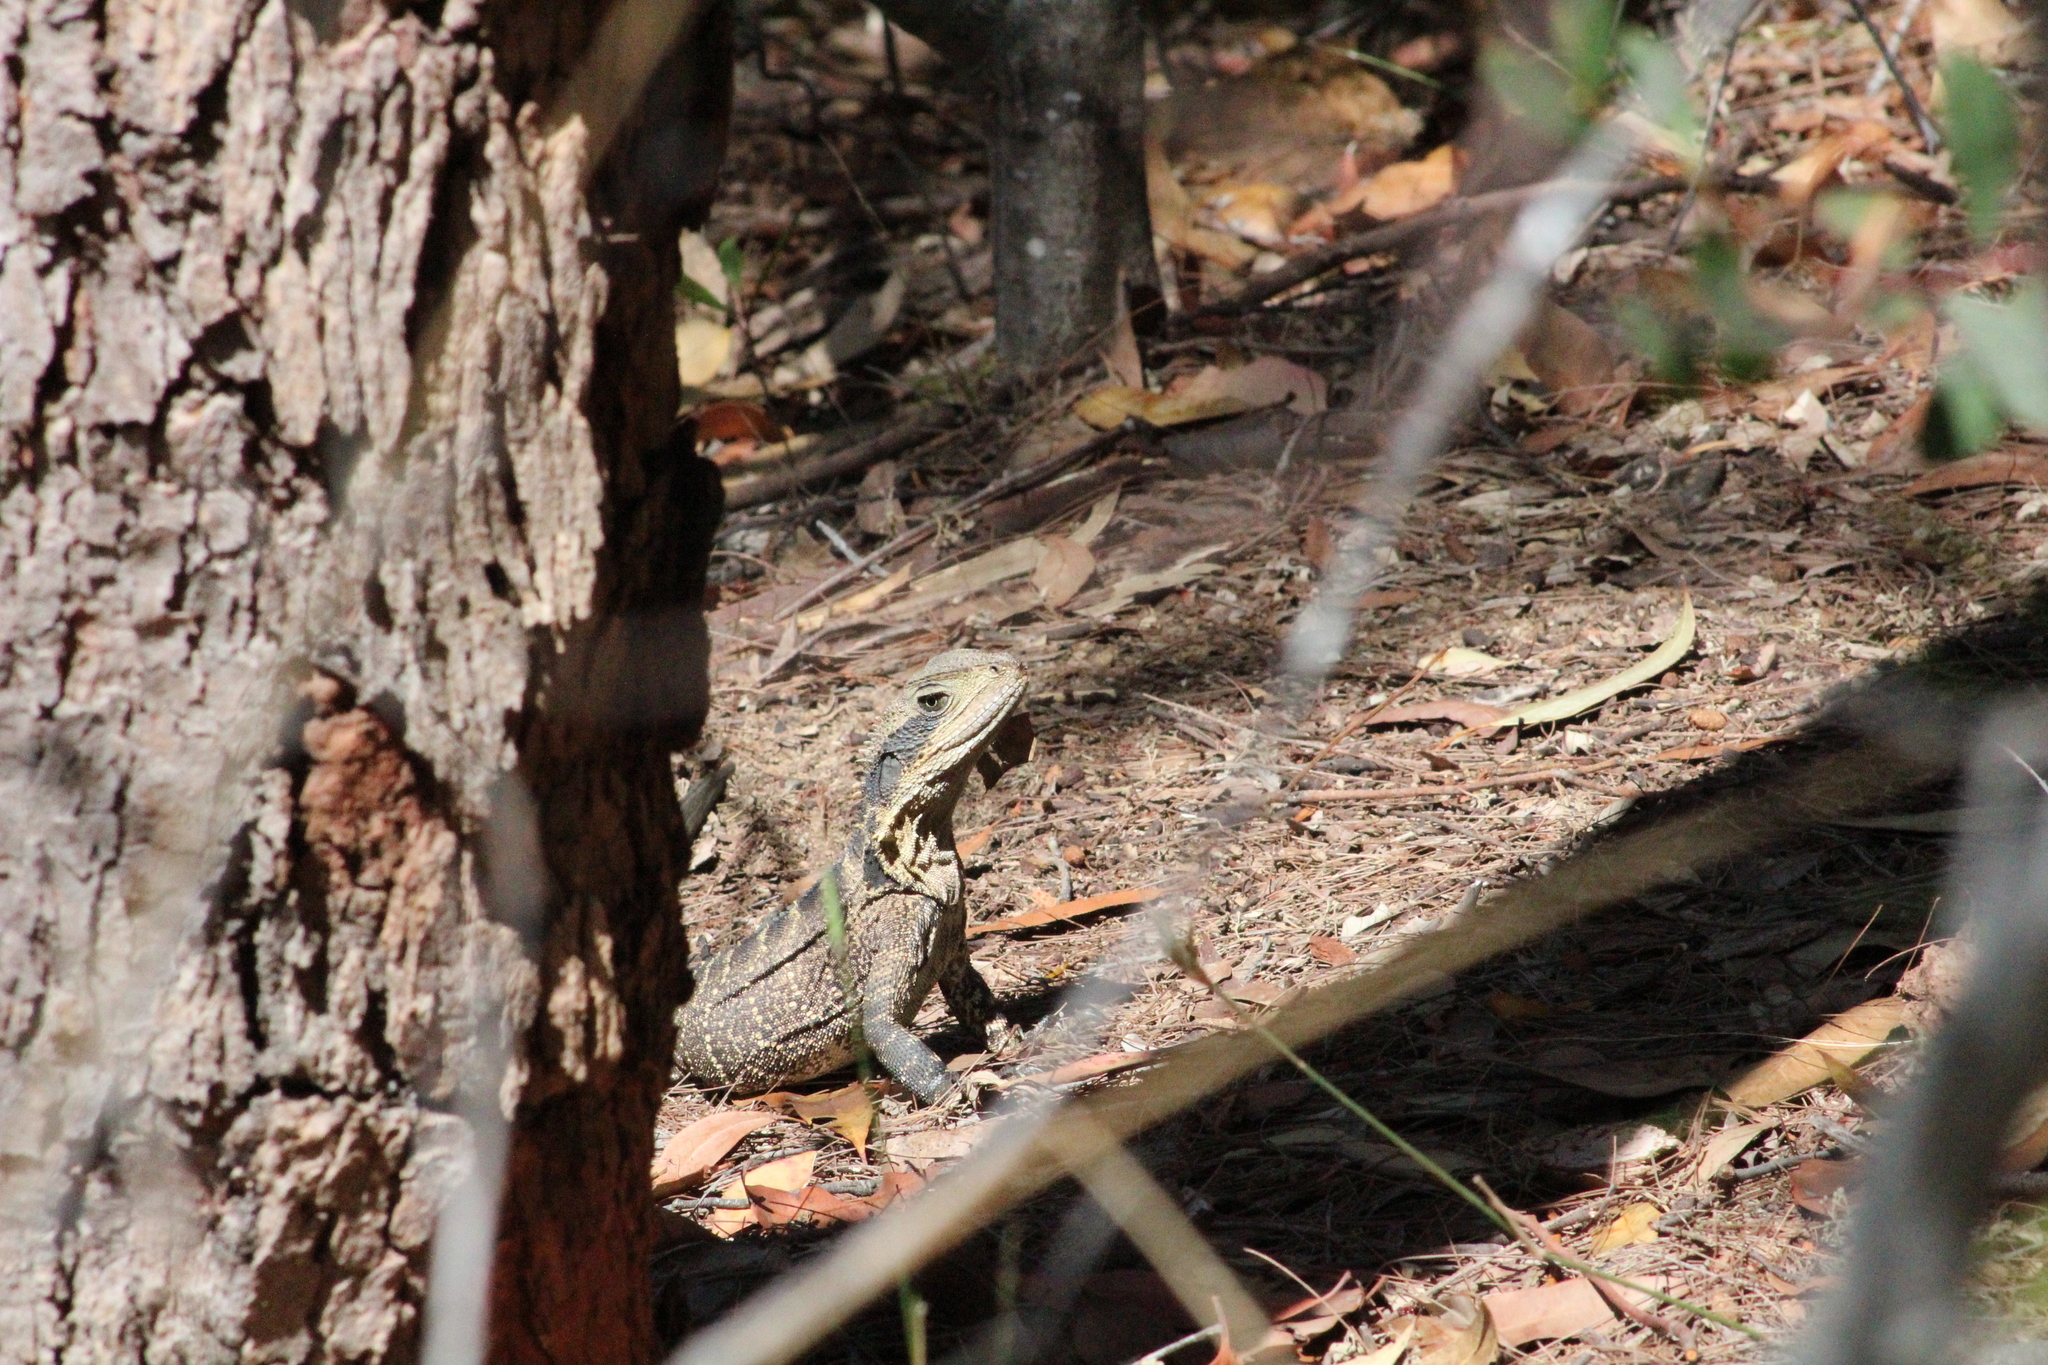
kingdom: Animalia
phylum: Chordata
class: Squamata
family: Agamidae
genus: Intellagama
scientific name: Intellagama lesueurii
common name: Eastern water dragon
